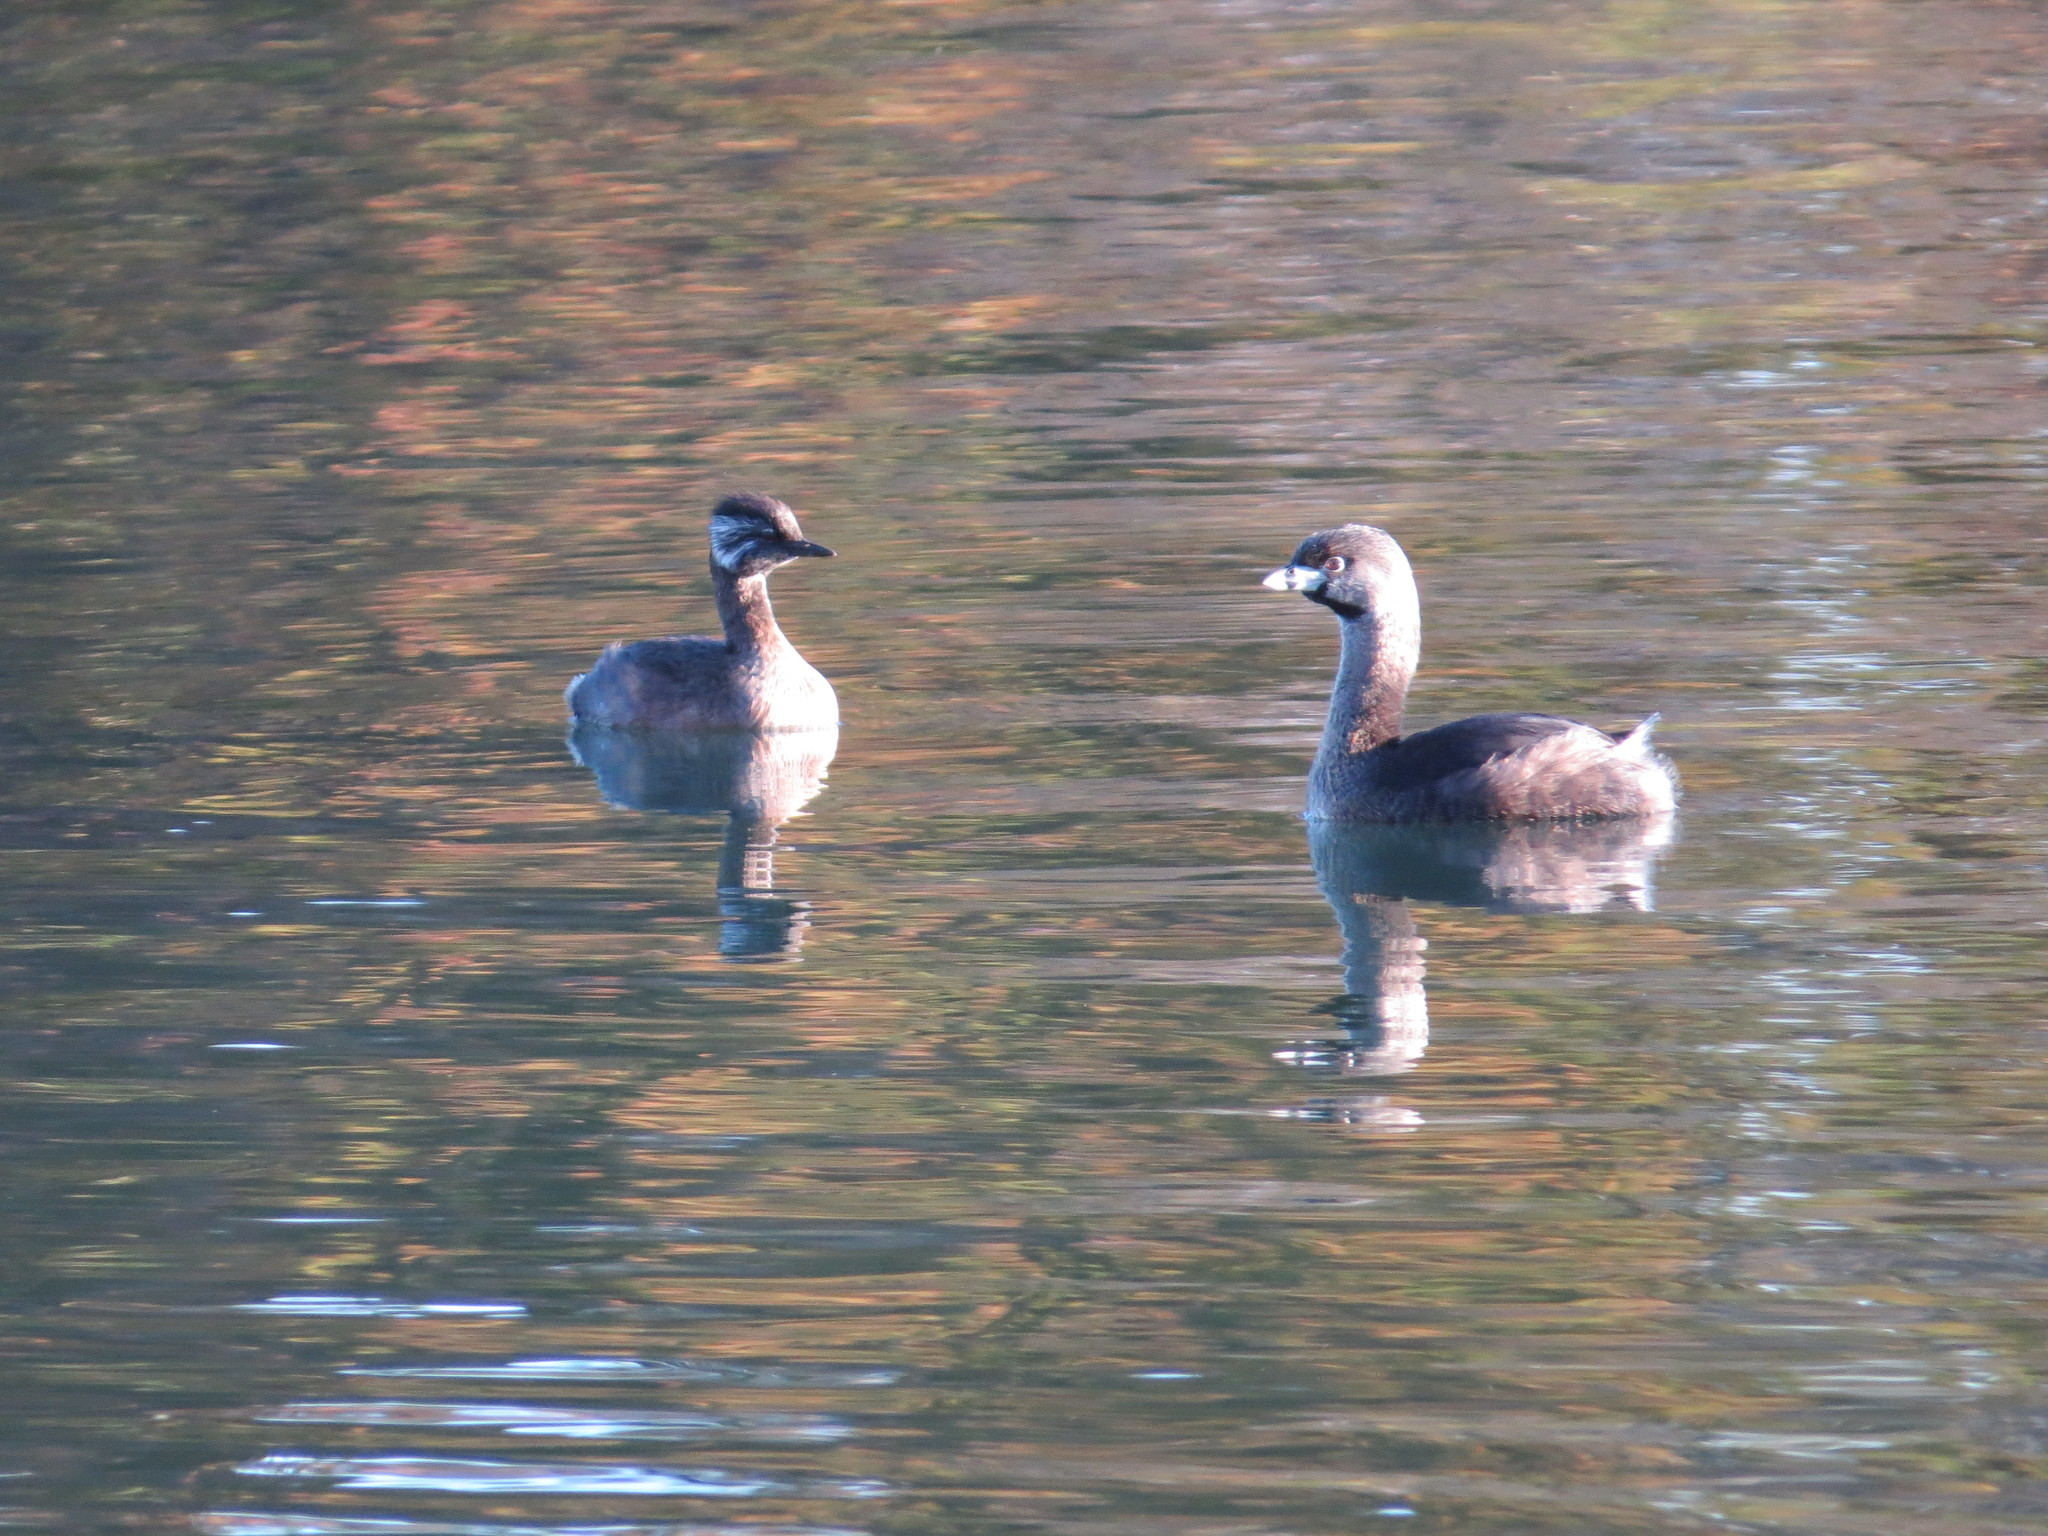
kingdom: Animalia
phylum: Chordata
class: Aves
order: Podicipediformes
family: Podicipedidae
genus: Podilymbus
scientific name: Podilymbus podiceps
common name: Pied-billed grebe
